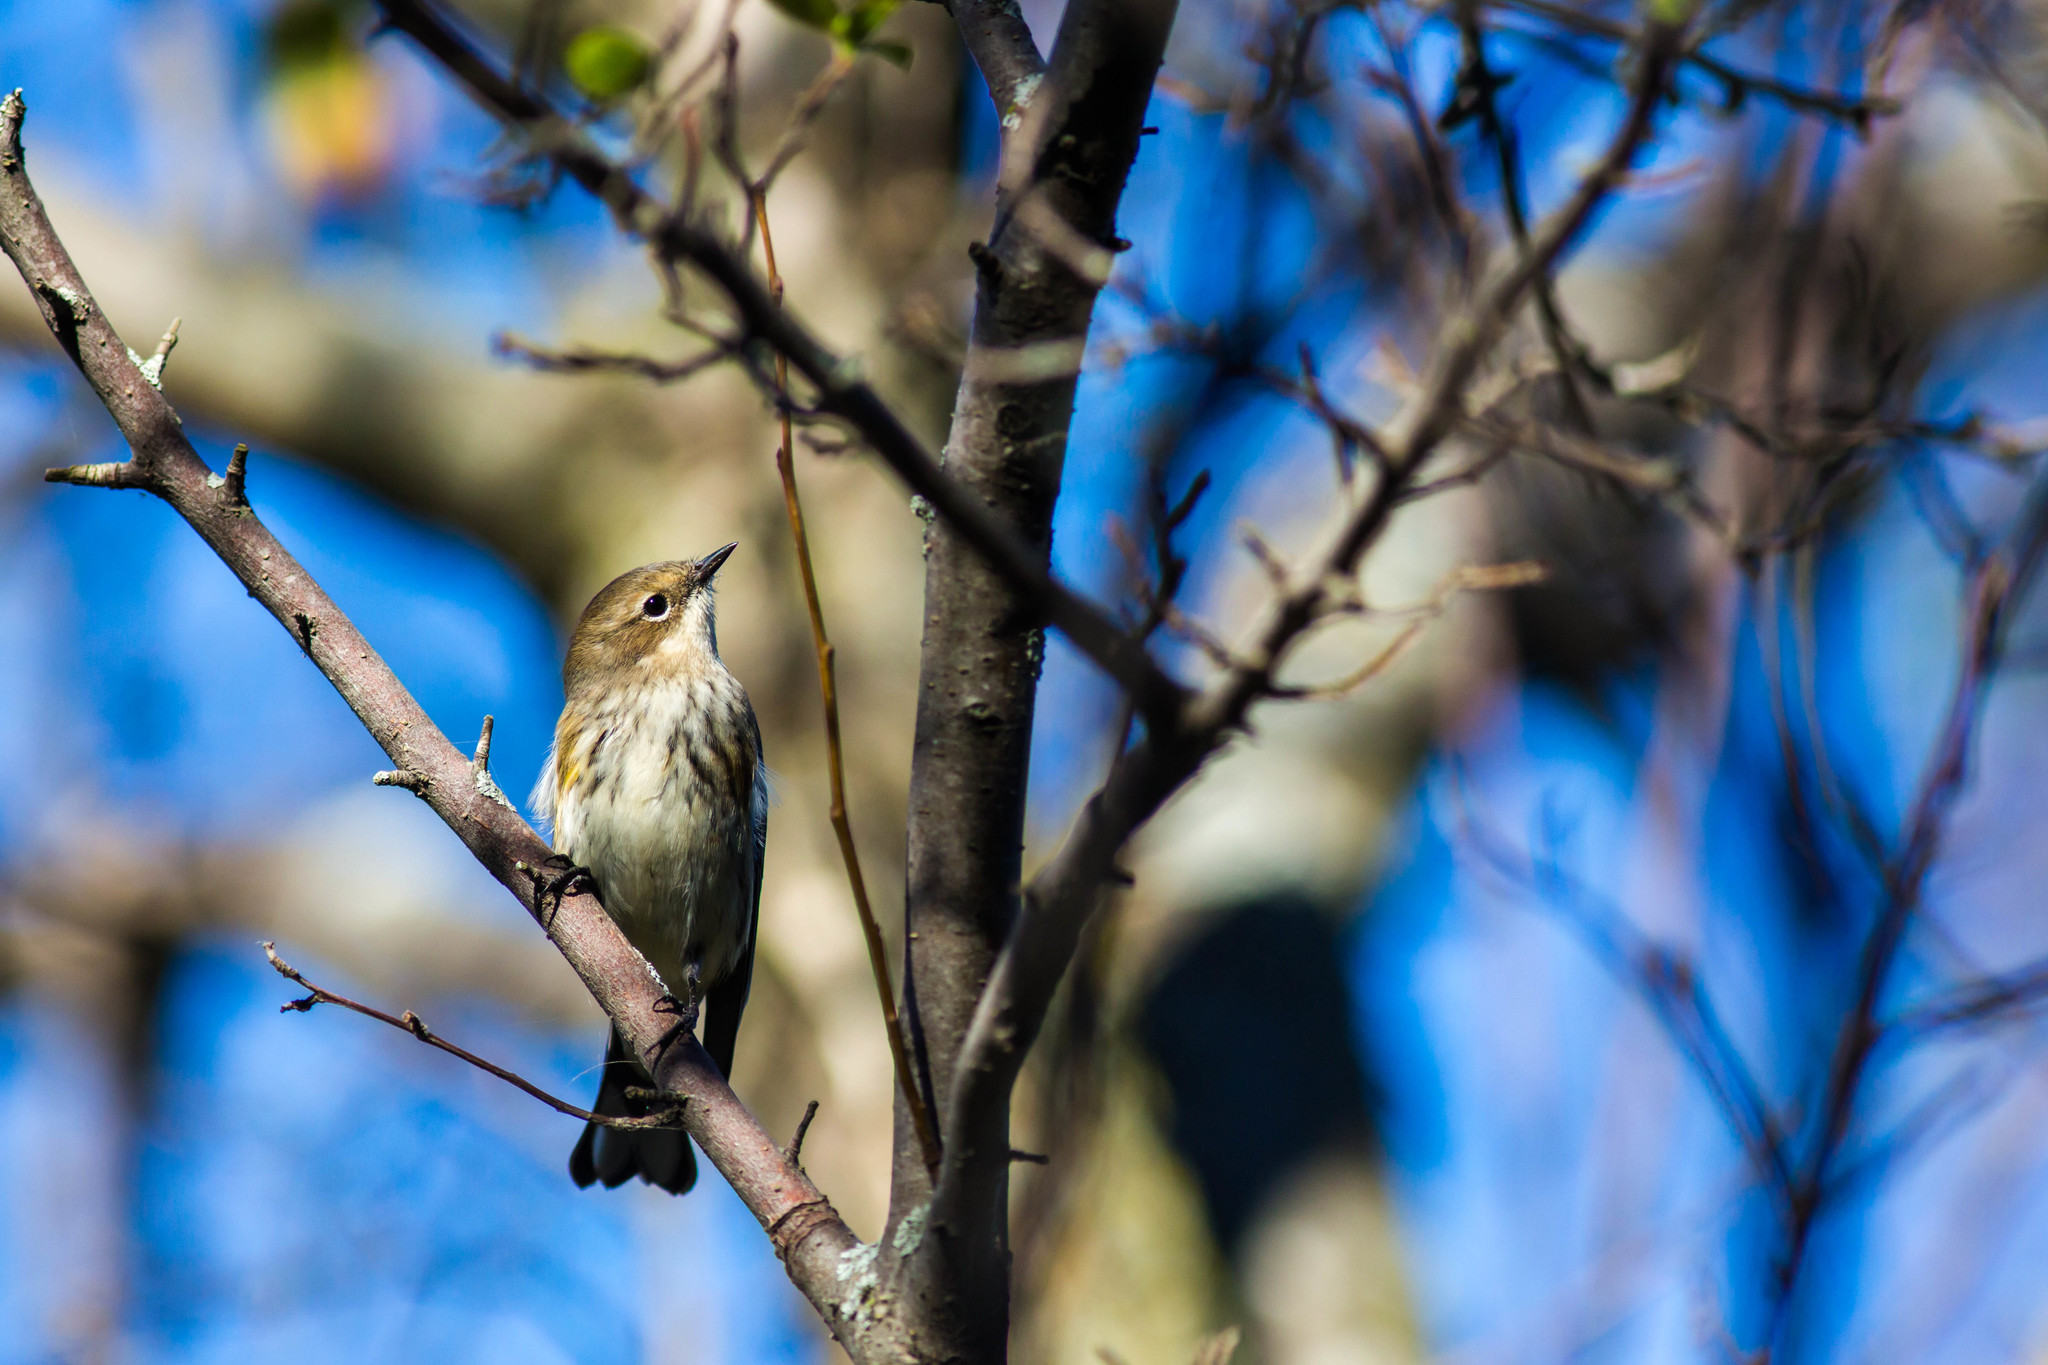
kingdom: Animalia
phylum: Chordata
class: Aves
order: Passeriformes
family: Parulidae
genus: Setophaga
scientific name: Setophaga coronata
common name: Myrtle warbler
